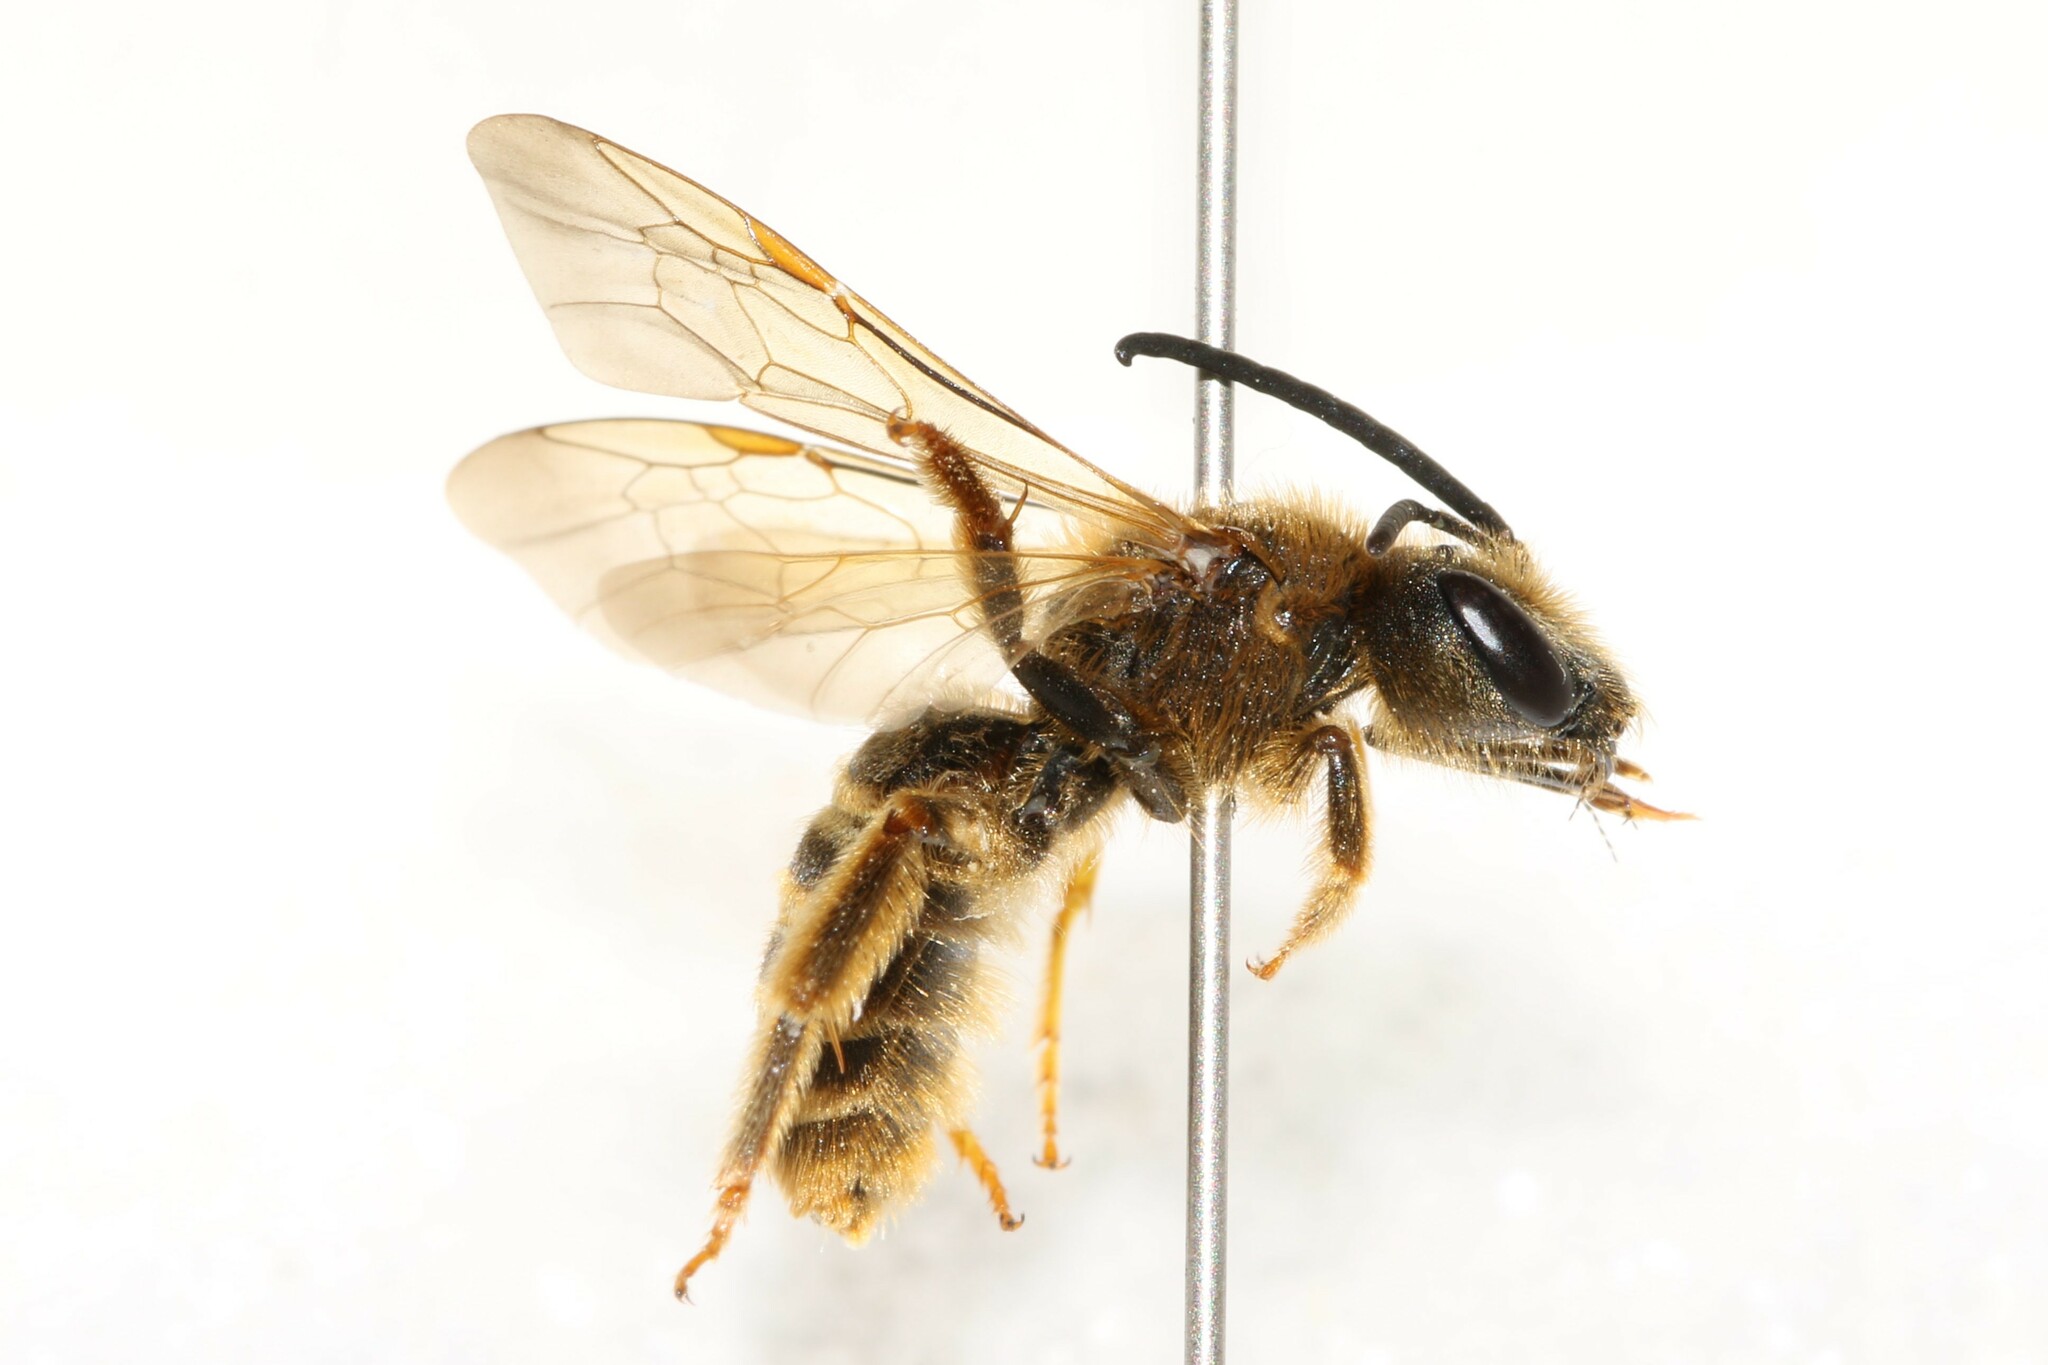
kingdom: Animalia
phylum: Arthropoda
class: Insecta
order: Hymenoptera
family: Halictidae
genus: Halictus
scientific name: Halictus scabiosae
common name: Great banded furrow bee
